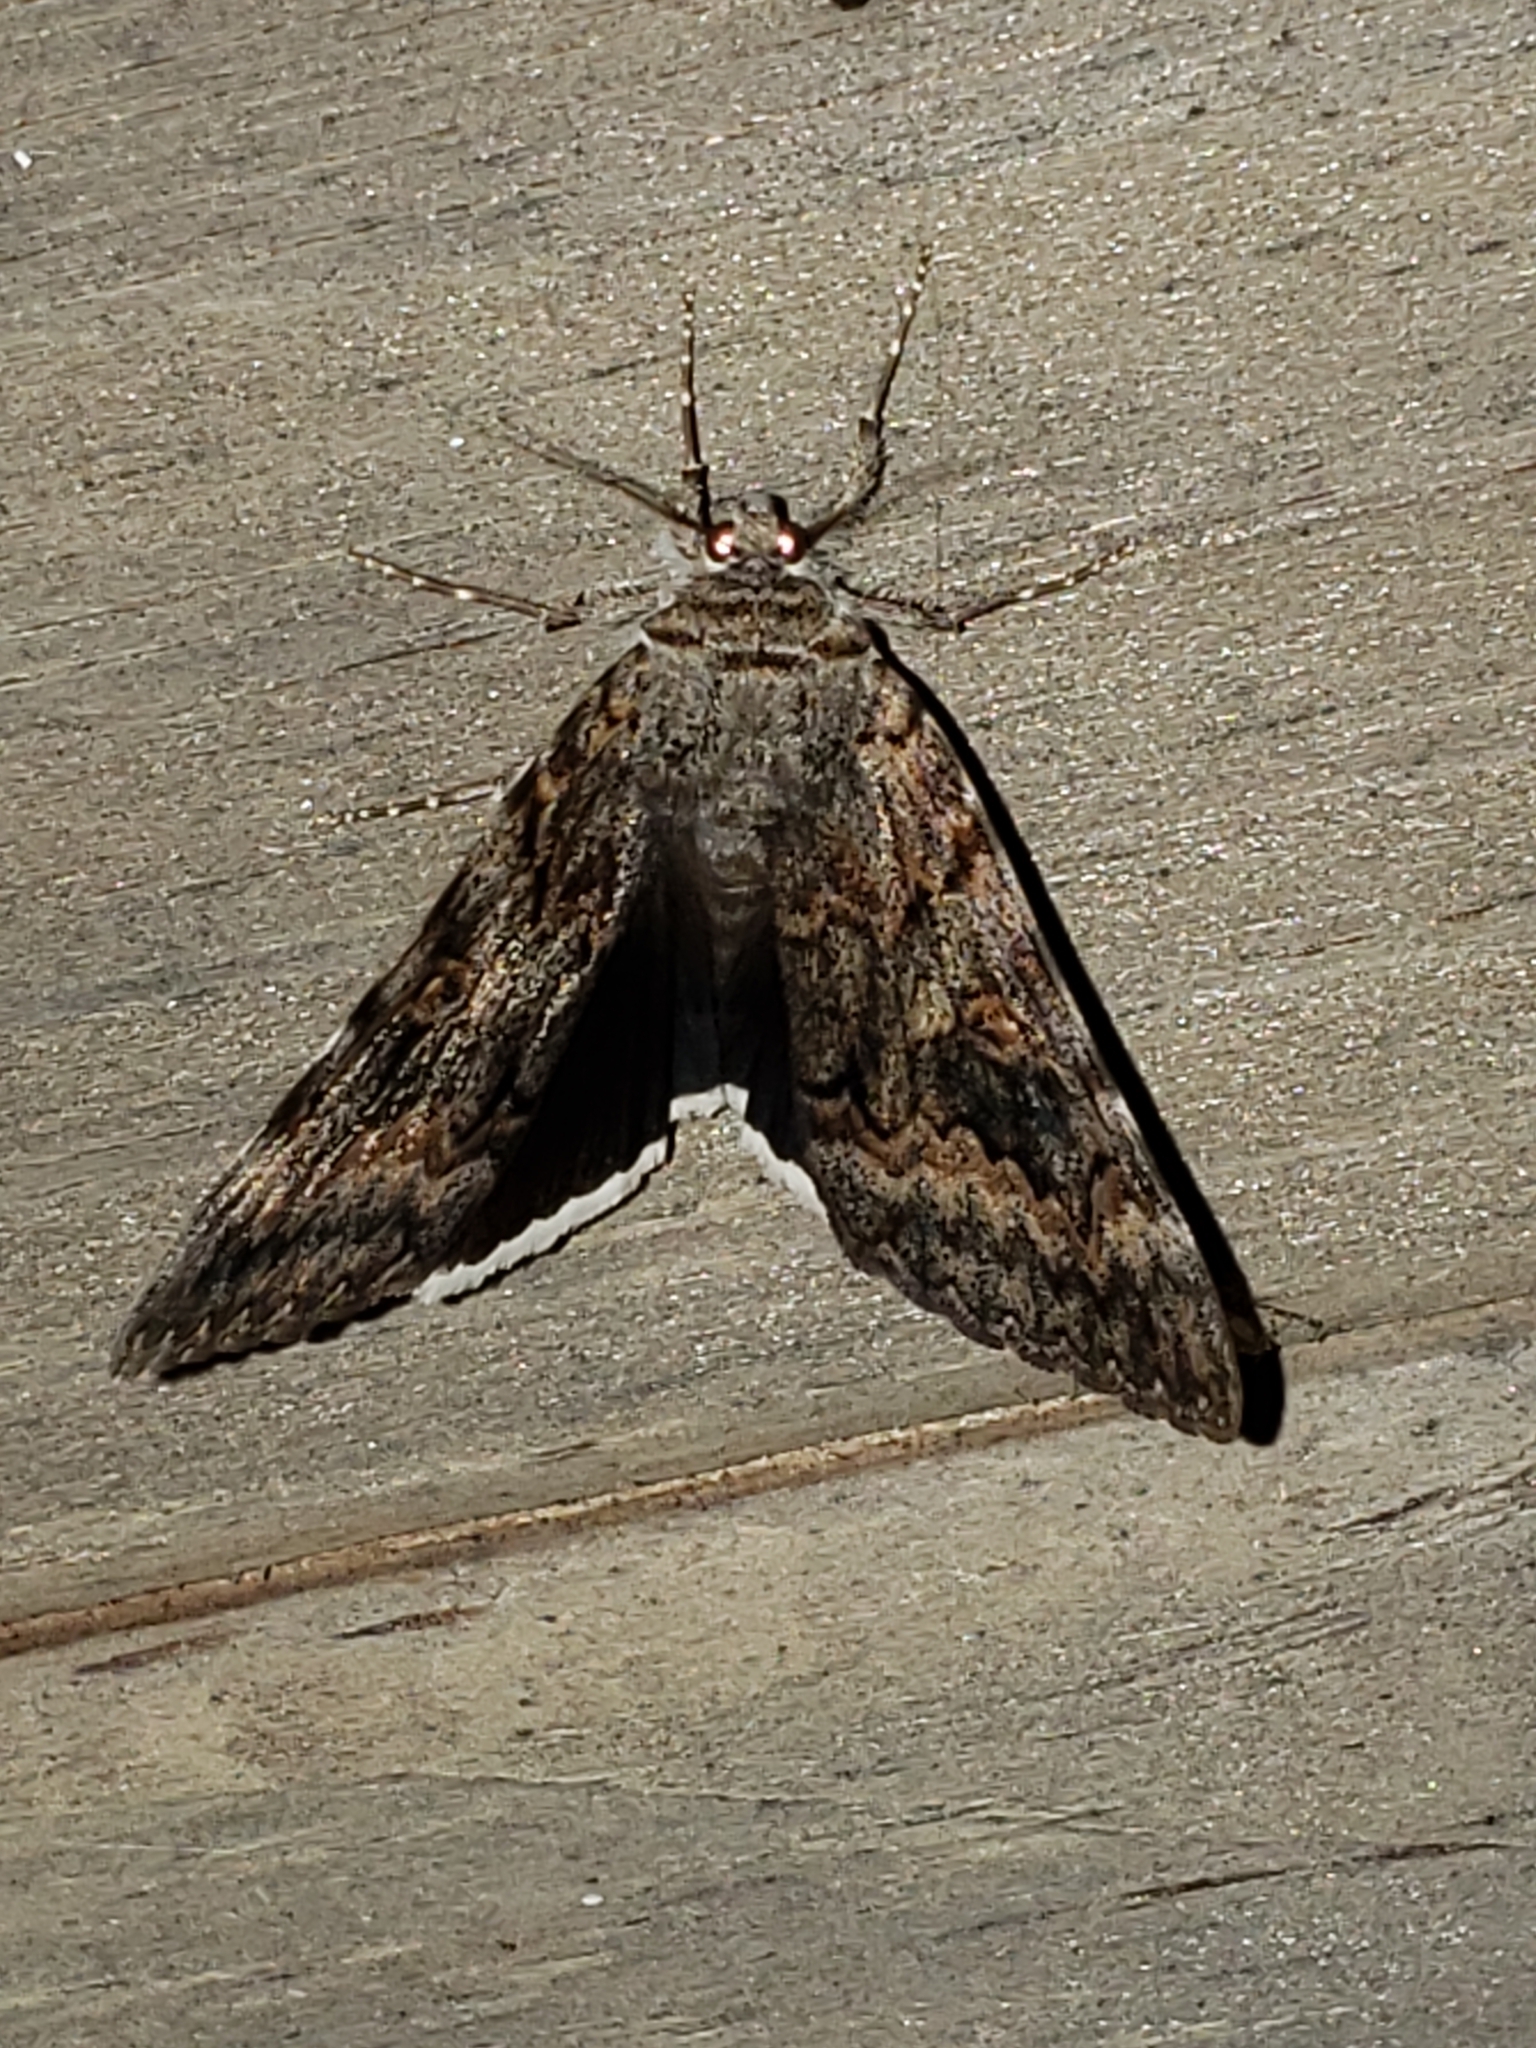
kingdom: Animalia
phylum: Arthropoda
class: Insecta
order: Lepidoptera
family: Erebidae
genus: Catocala
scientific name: Catocala epione
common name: Epione underwing
